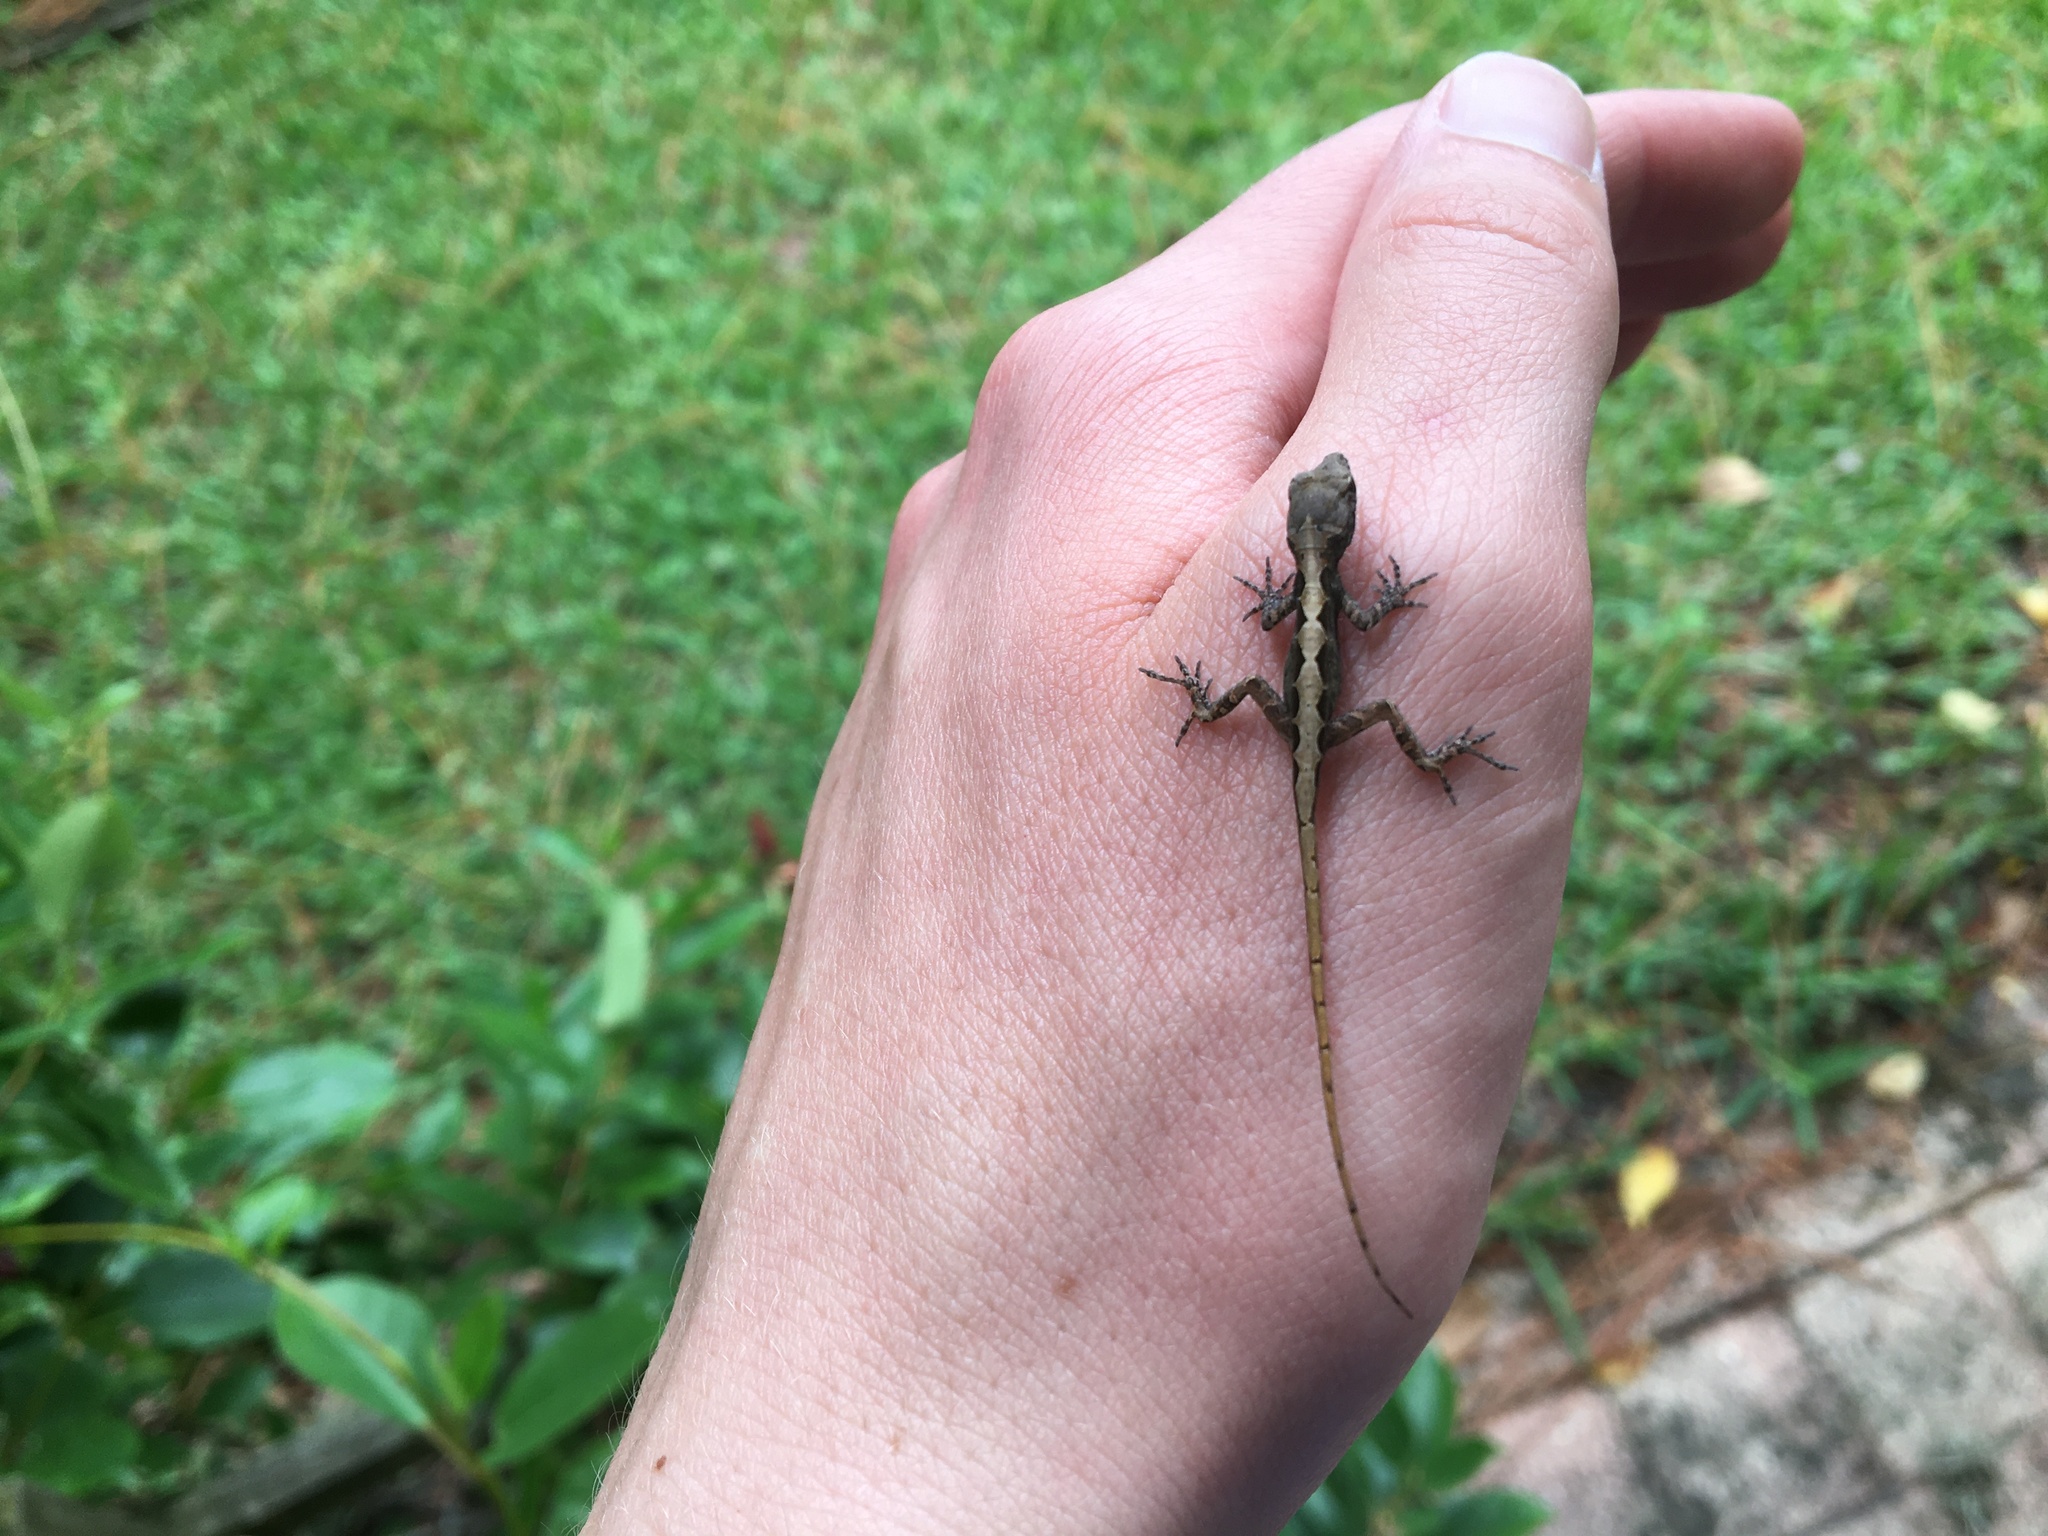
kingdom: Animalia
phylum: Chordata
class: Squamata
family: Dactyloidae
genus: Anolis
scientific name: Anolis sagrei
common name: Brown anole
